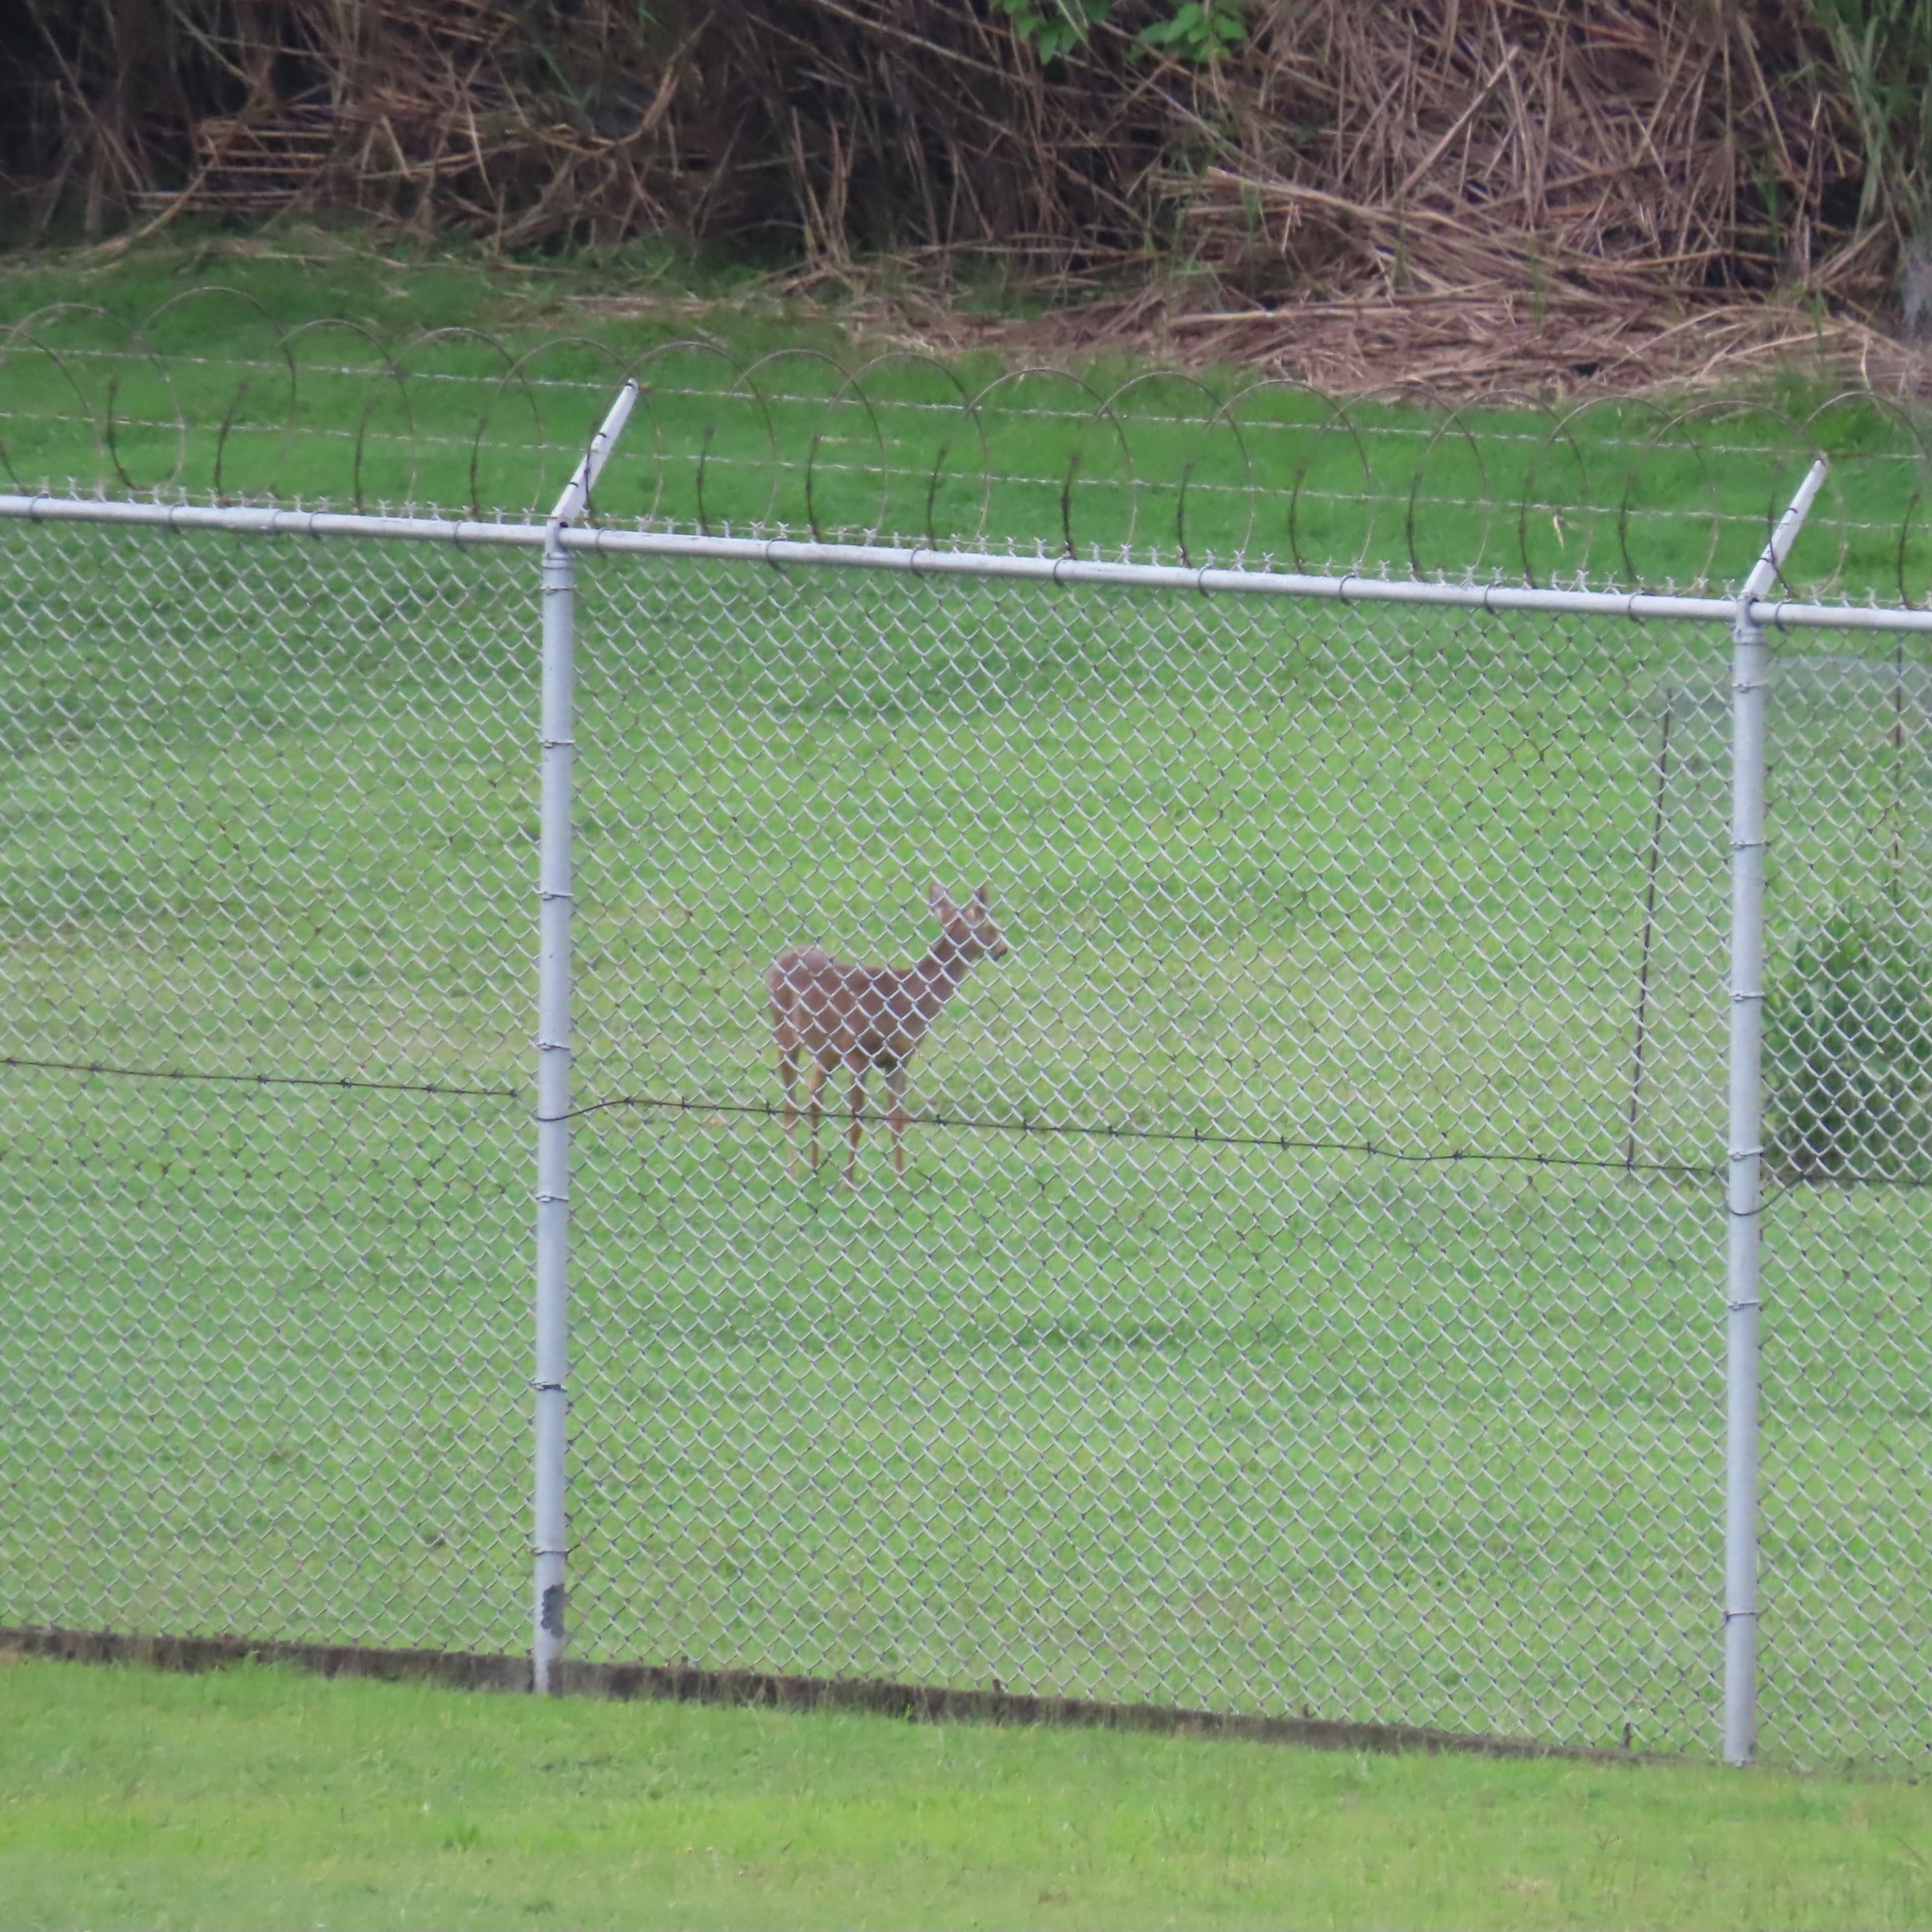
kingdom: Animalia
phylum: Chordata
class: Mammalia
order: Artiodactyla
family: Cervidae
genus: Odocoileus
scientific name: Odocoileus virginianus
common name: White-tailed deer
